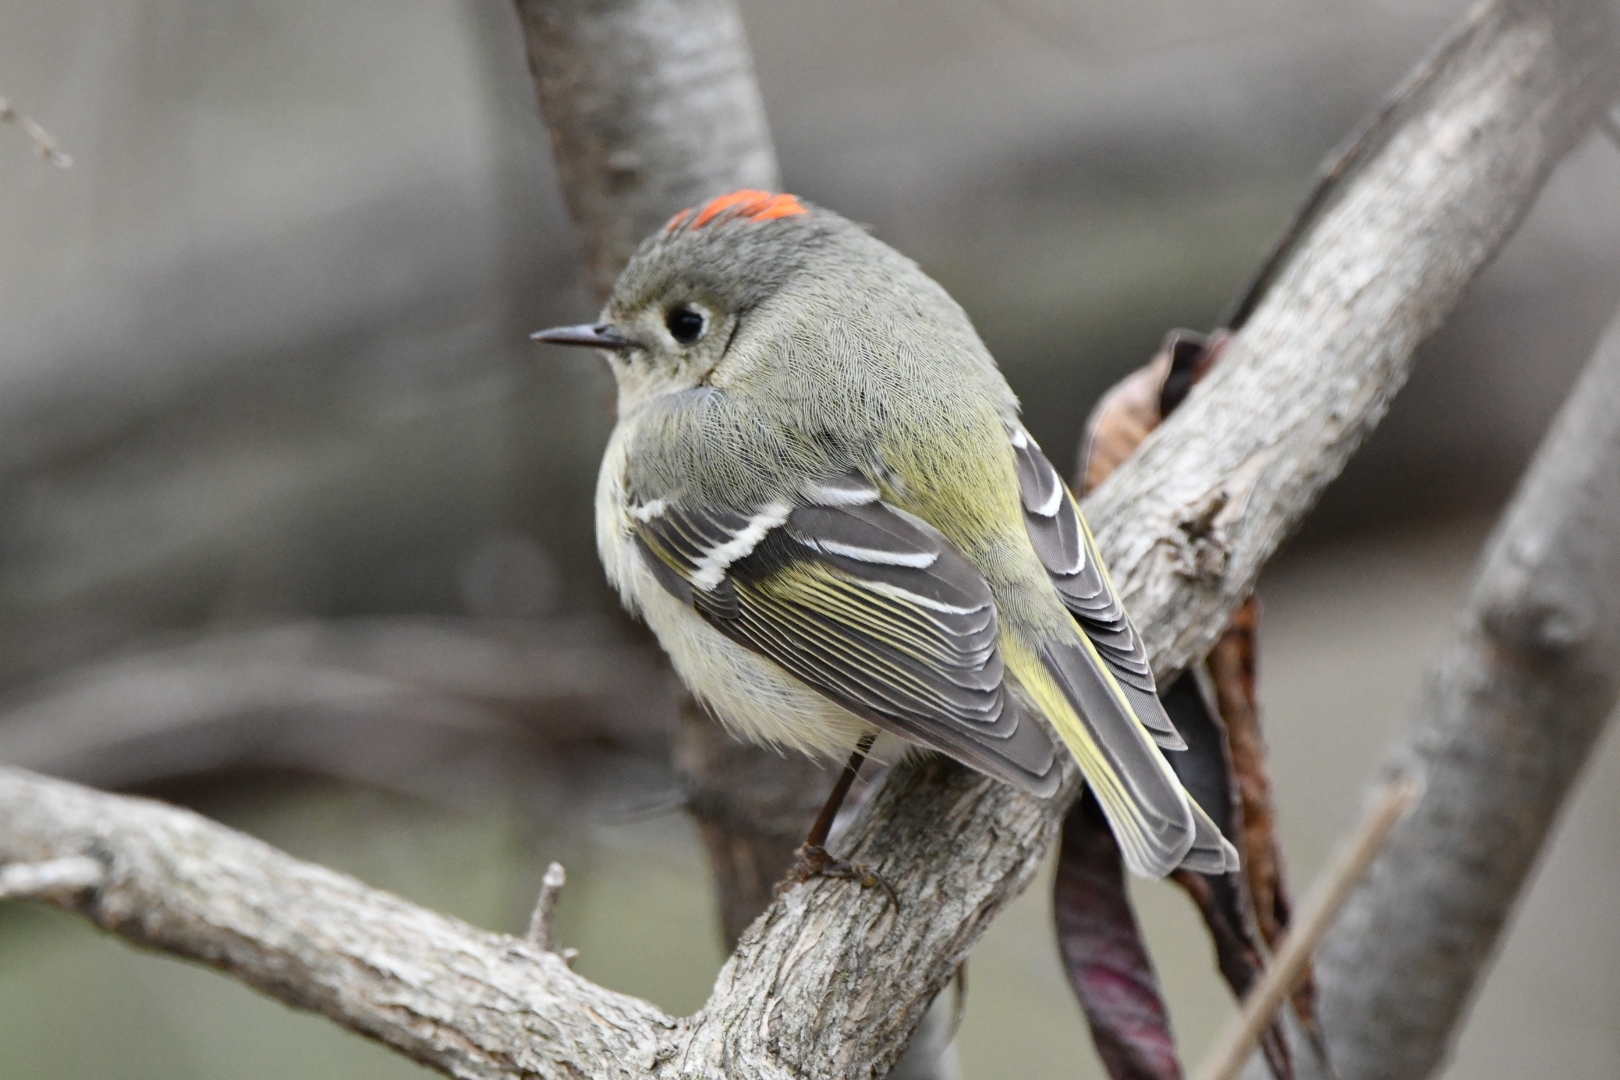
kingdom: Animalia
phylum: Chordata
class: Aves
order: Passeriformes
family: Regulidae
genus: Regulus
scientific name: Regulus calendula
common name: Ruby-crowned kinglet
